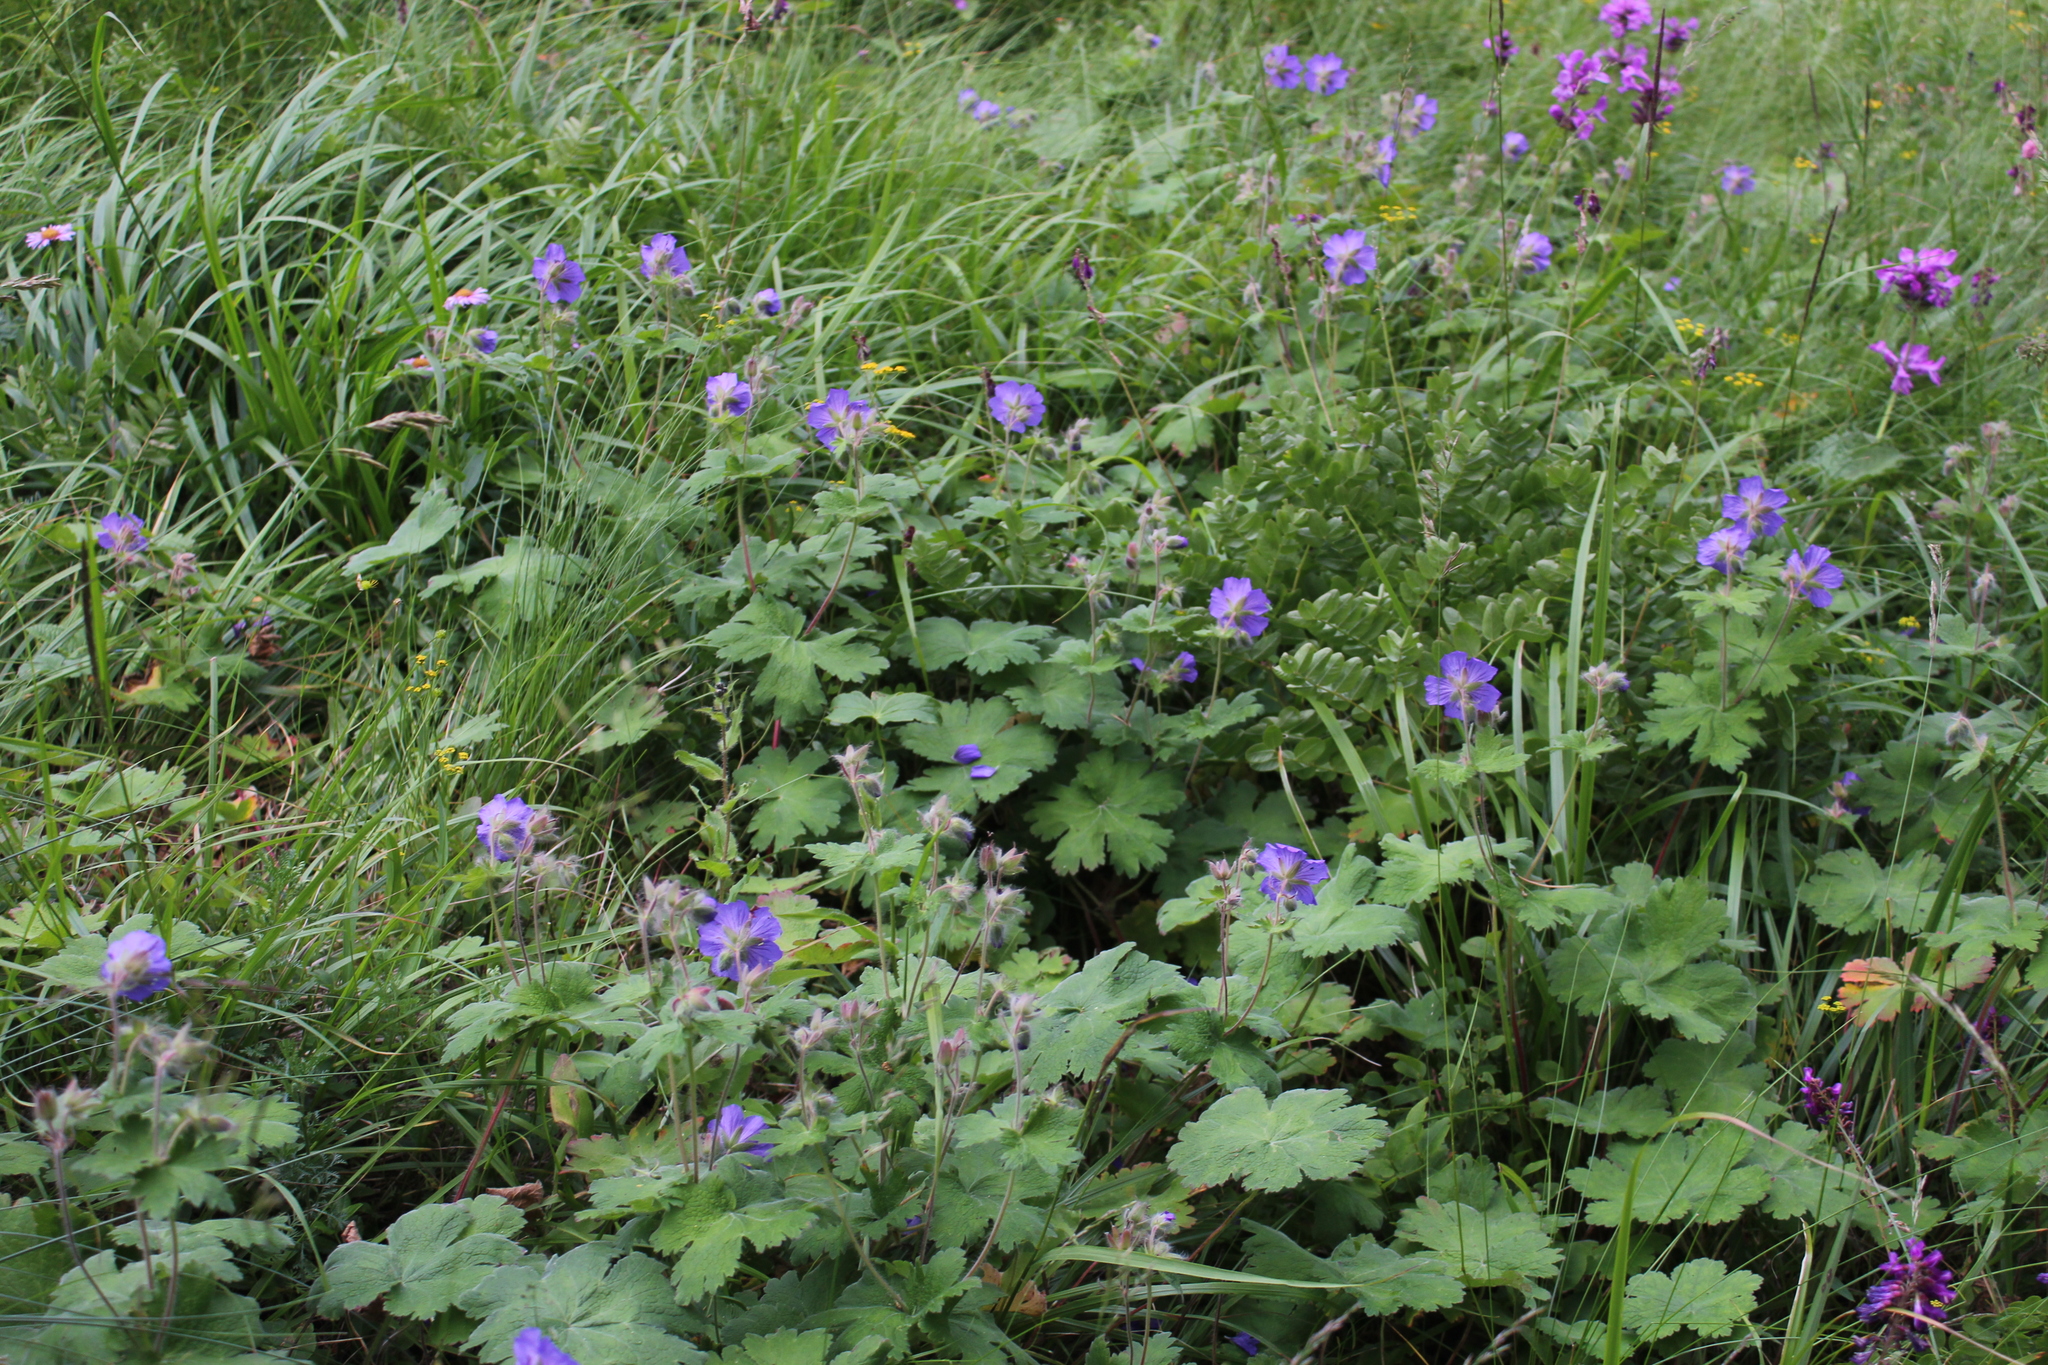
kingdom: Plantae
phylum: Tracheophyta
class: Magnoliopsida
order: Geraniales
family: Geraniaceae
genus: Geranium
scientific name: Geranium platypetalum
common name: Glandular crane's-bill
